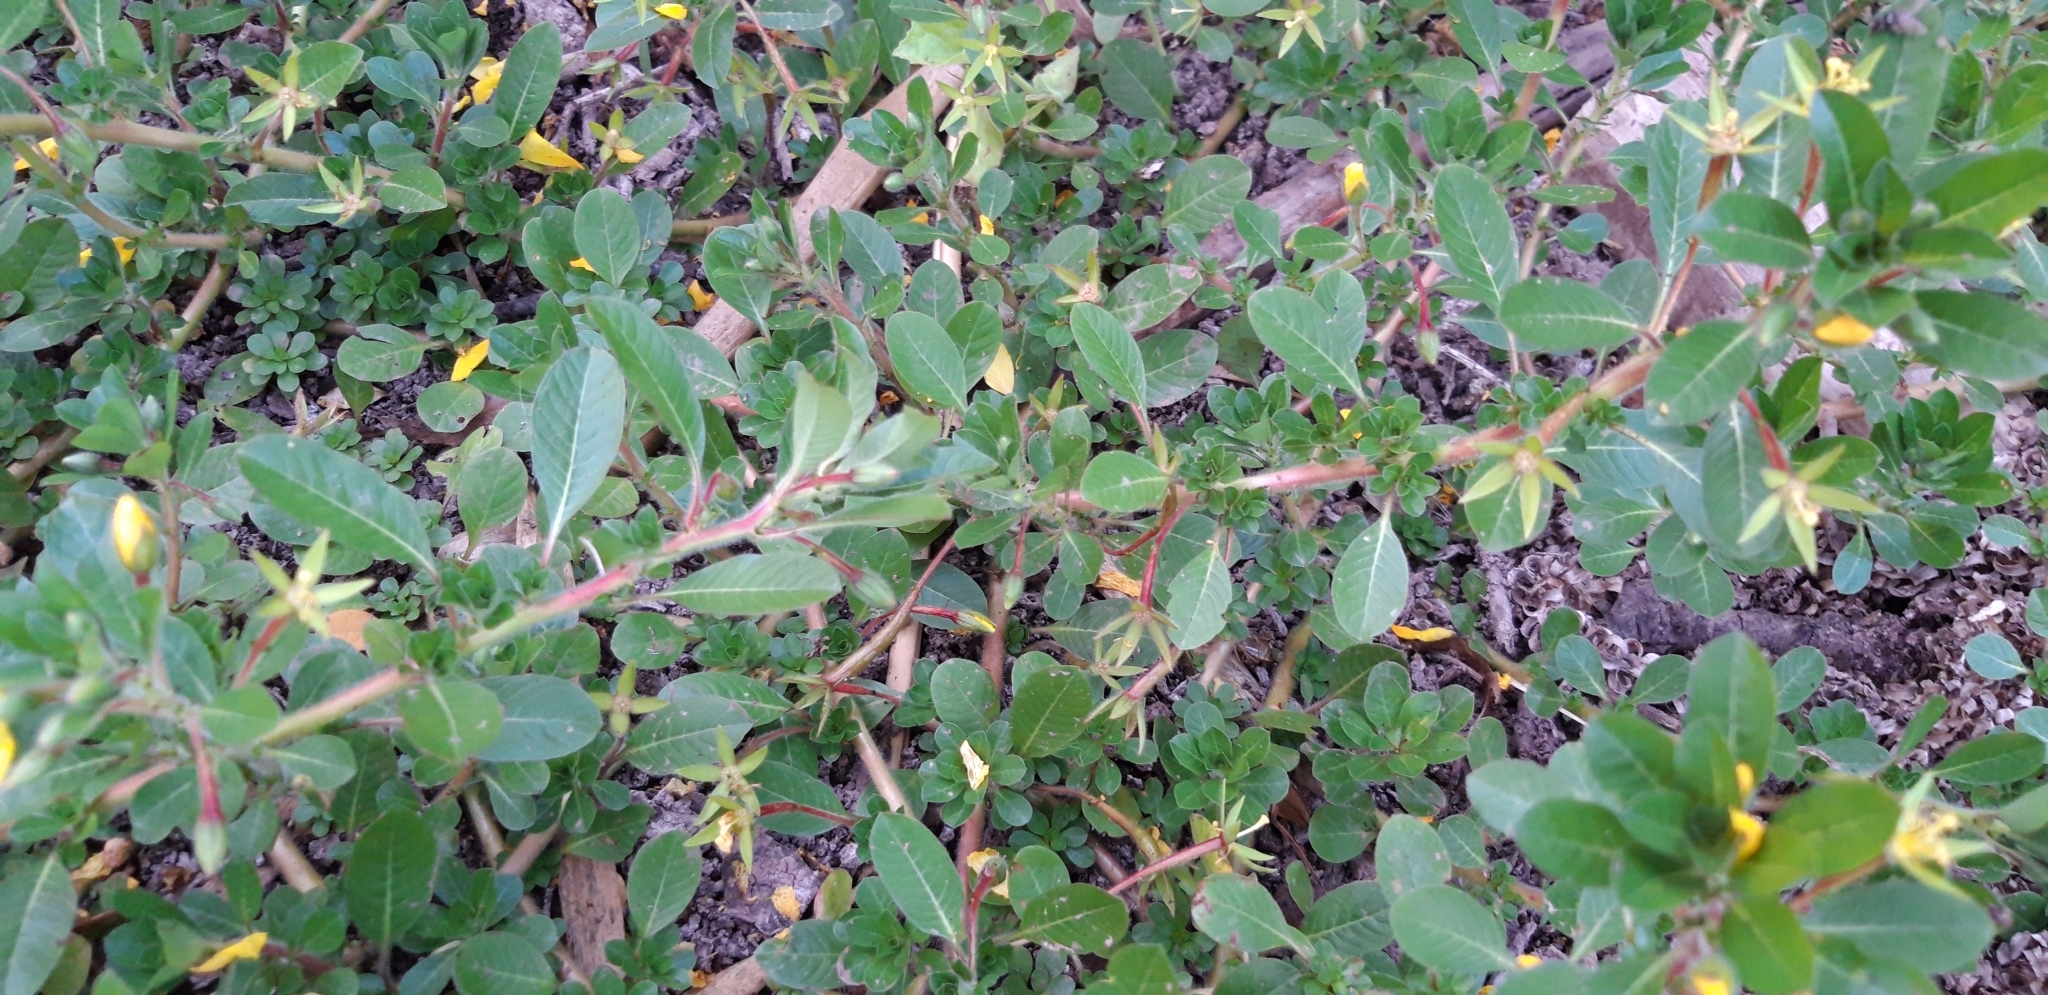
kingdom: Plantae
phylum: Tracheophyta
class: Magnoliopsida
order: Myrtales
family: Onagraceae
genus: Ludwigia
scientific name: Ludwigia grandiflora
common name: Water primrose
